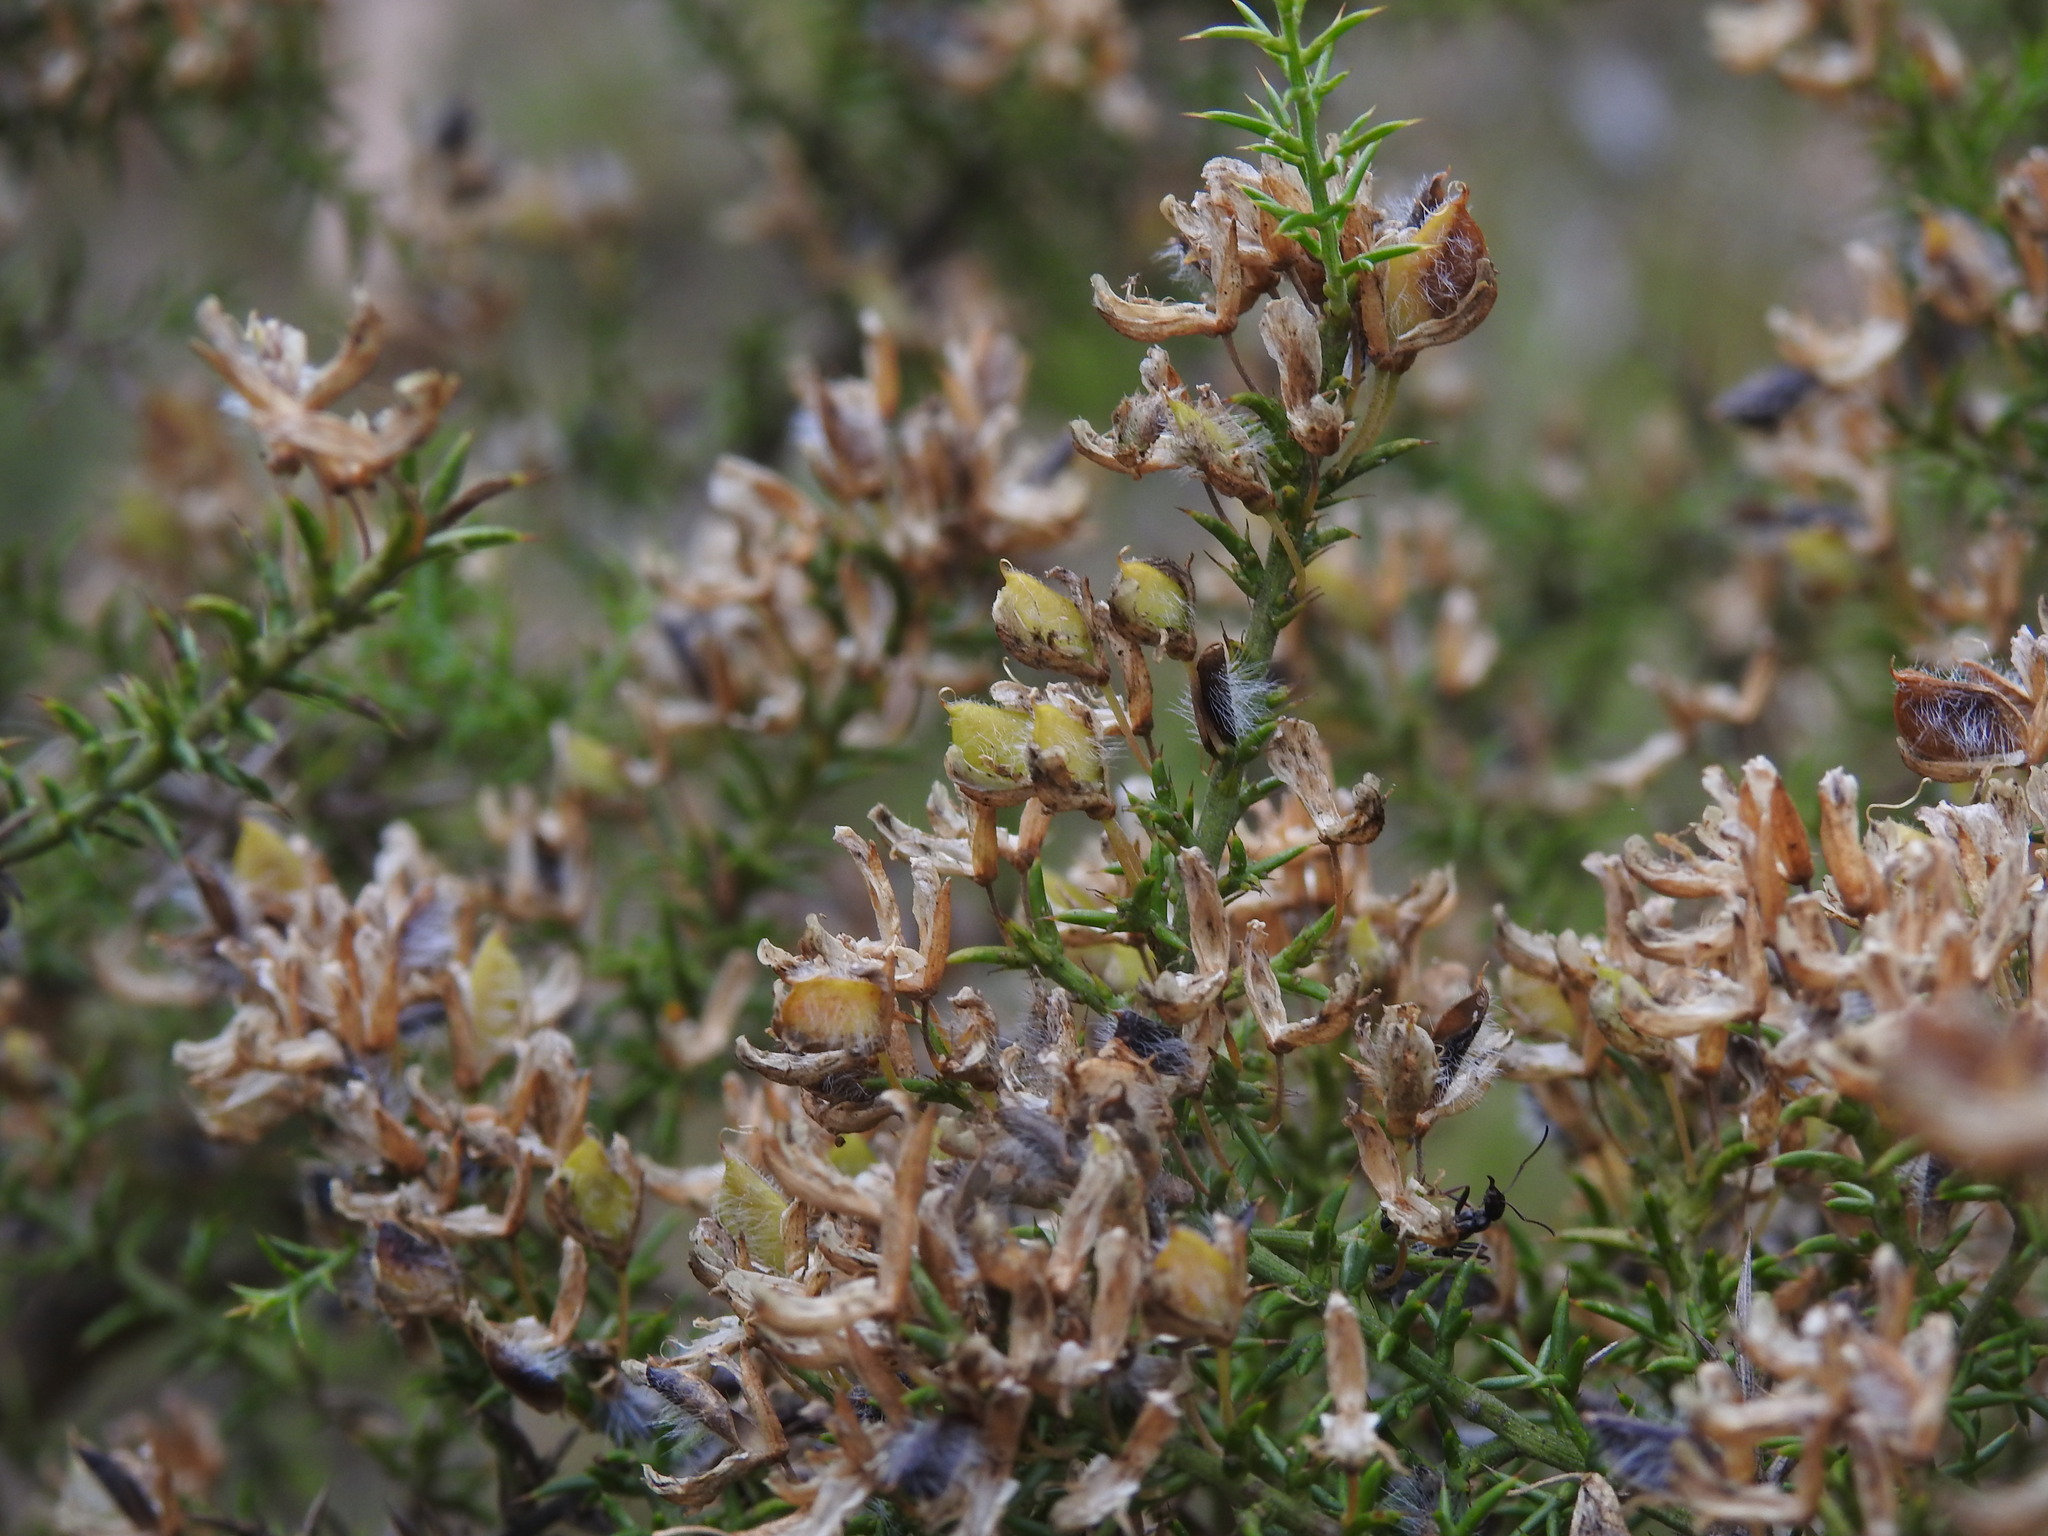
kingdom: Plantae
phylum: Tracheophyta
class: Magnoliopsida
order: Fabales
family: Fabaceae
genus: Ulex
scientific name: Ulex micranthus
